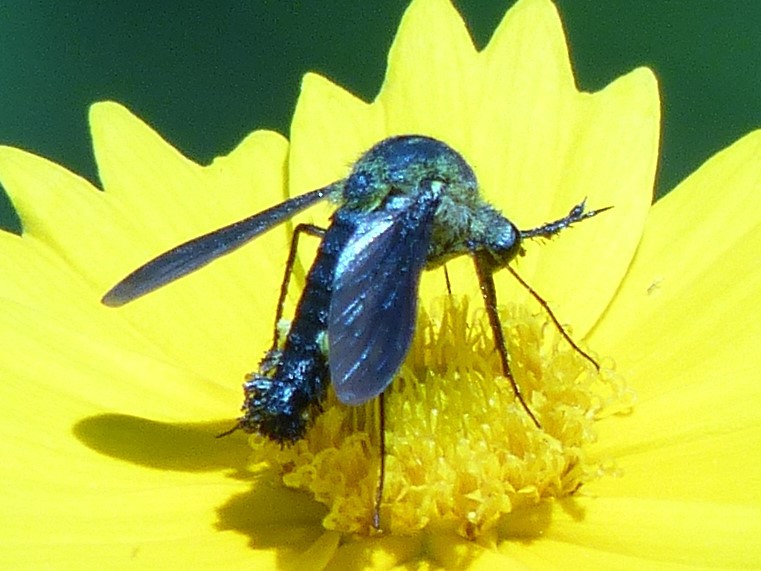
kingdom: Animalia
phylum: Arthropoda
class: Insecta
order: Diptera
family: Bombyliidae
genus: Lepidophora
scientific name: Lepidophora lepidocera
